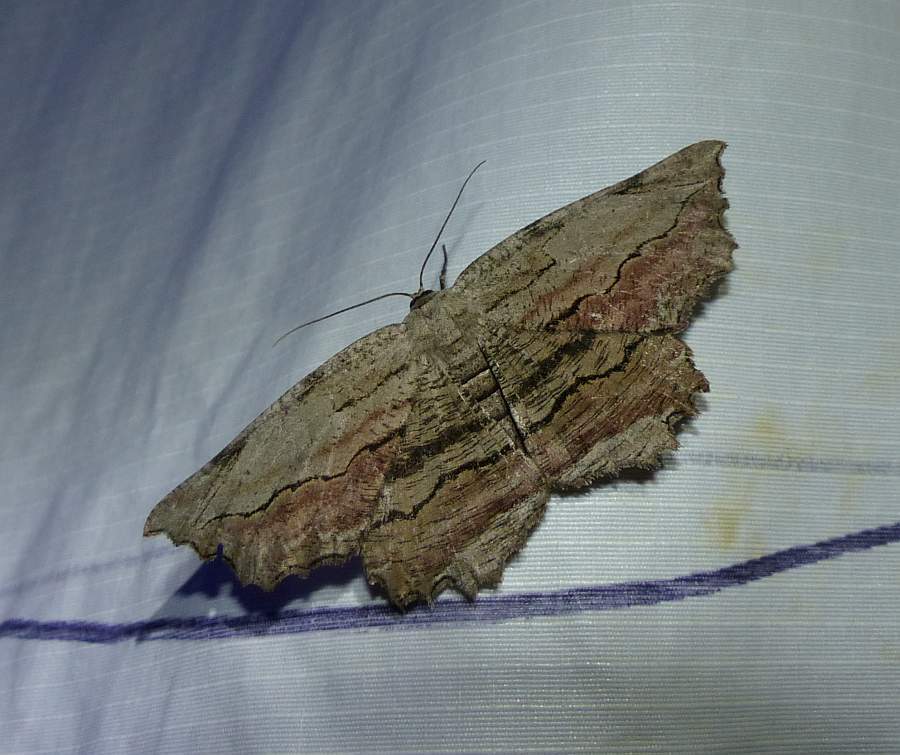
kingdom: Animalia
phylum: Arthropoda
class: Insecta
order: Lepidoptera
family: Geometridae
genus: Lytrosis
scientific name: Lytrosis unitaria
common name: Common lytrosis
